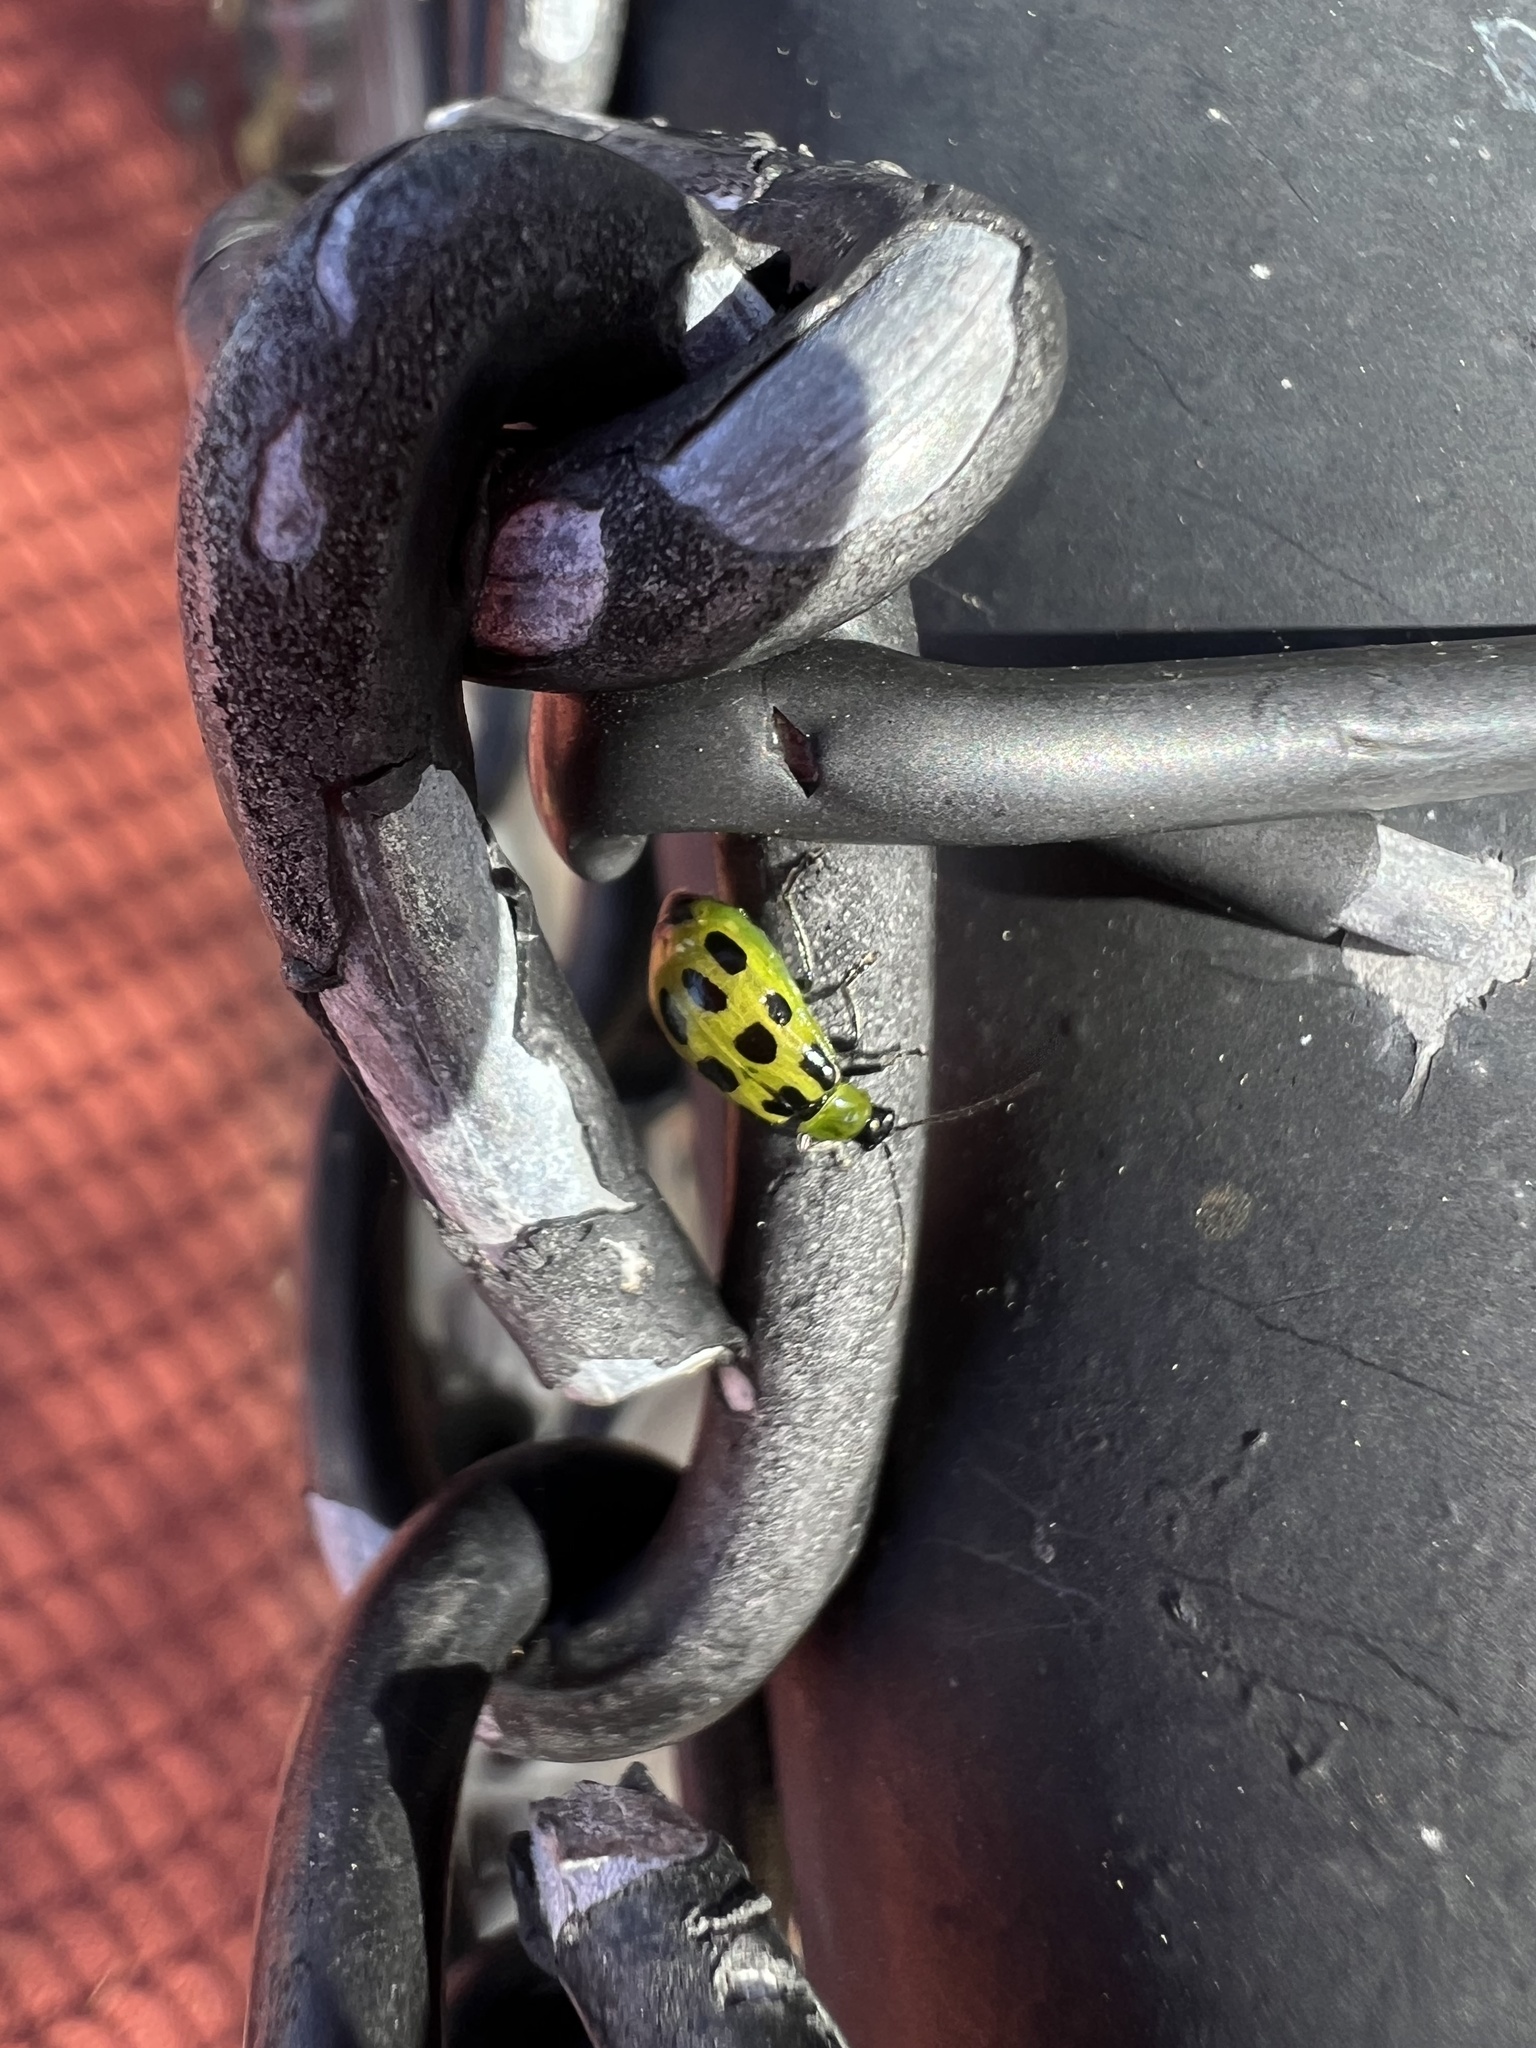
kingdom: Animalia
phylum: Arthropoda
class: Insecta
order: Coleoptera
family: Chrysomelidae
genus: Diabrotica
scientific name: Diabrotica undecimpunctata
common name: Spotted cucumber beetle
